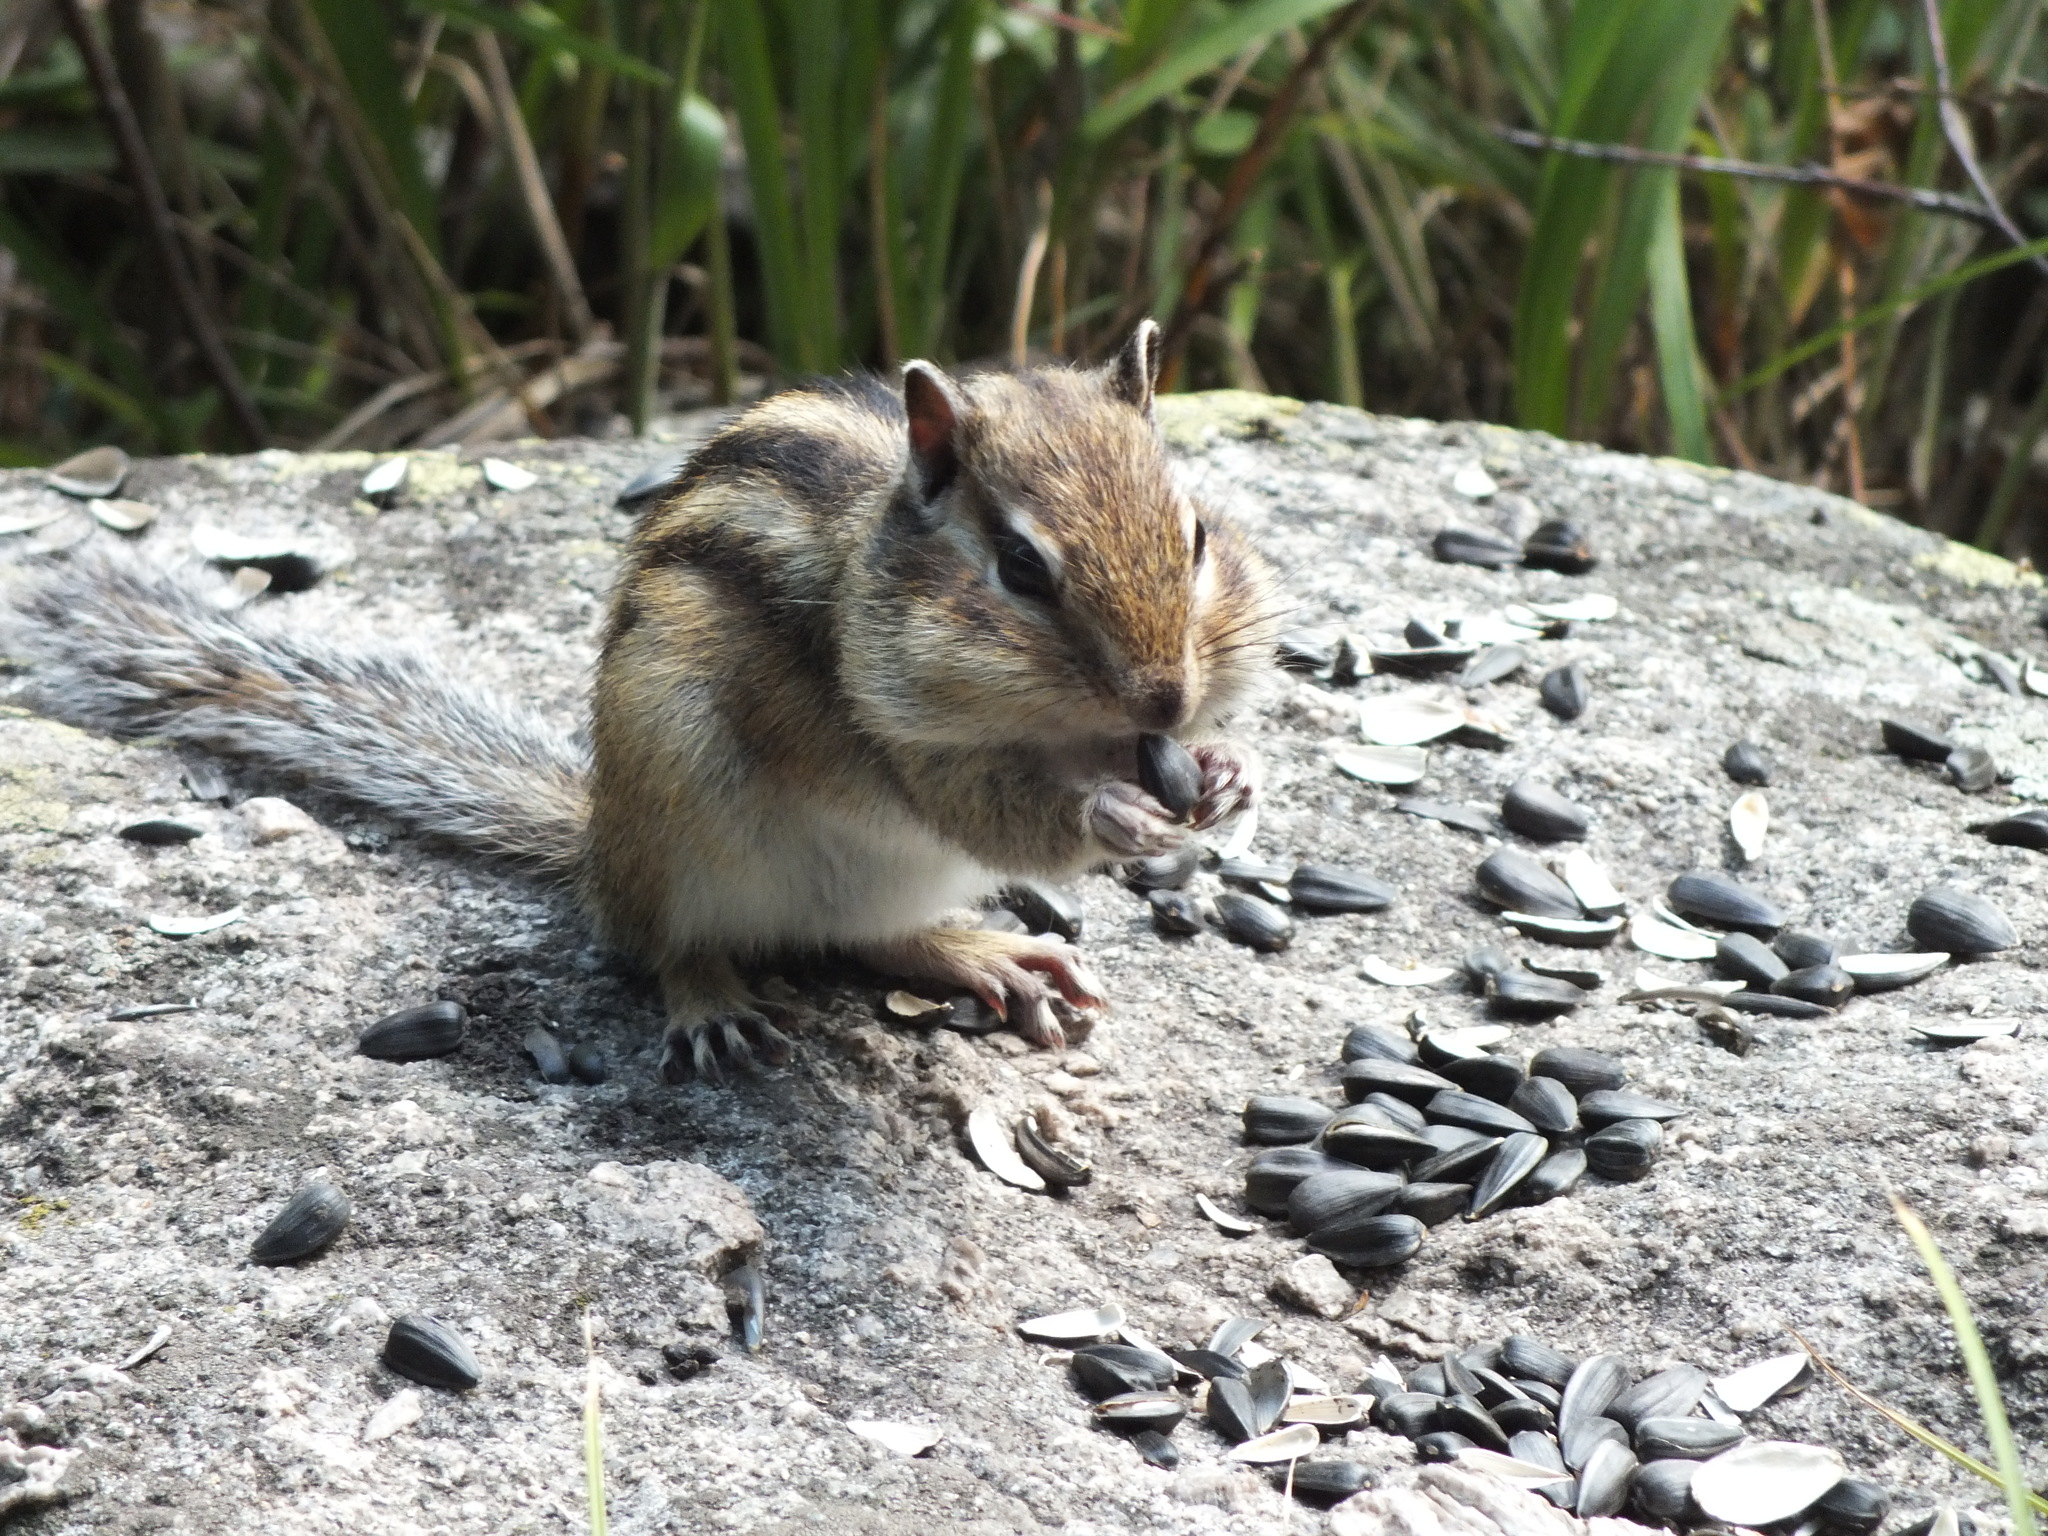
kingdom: Animalia
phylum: Chordata
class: Mammalia
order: Rodentia
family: Sciuridae
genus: Tamias
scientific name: Tamias sibiricus
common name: Siberian chipmunk
